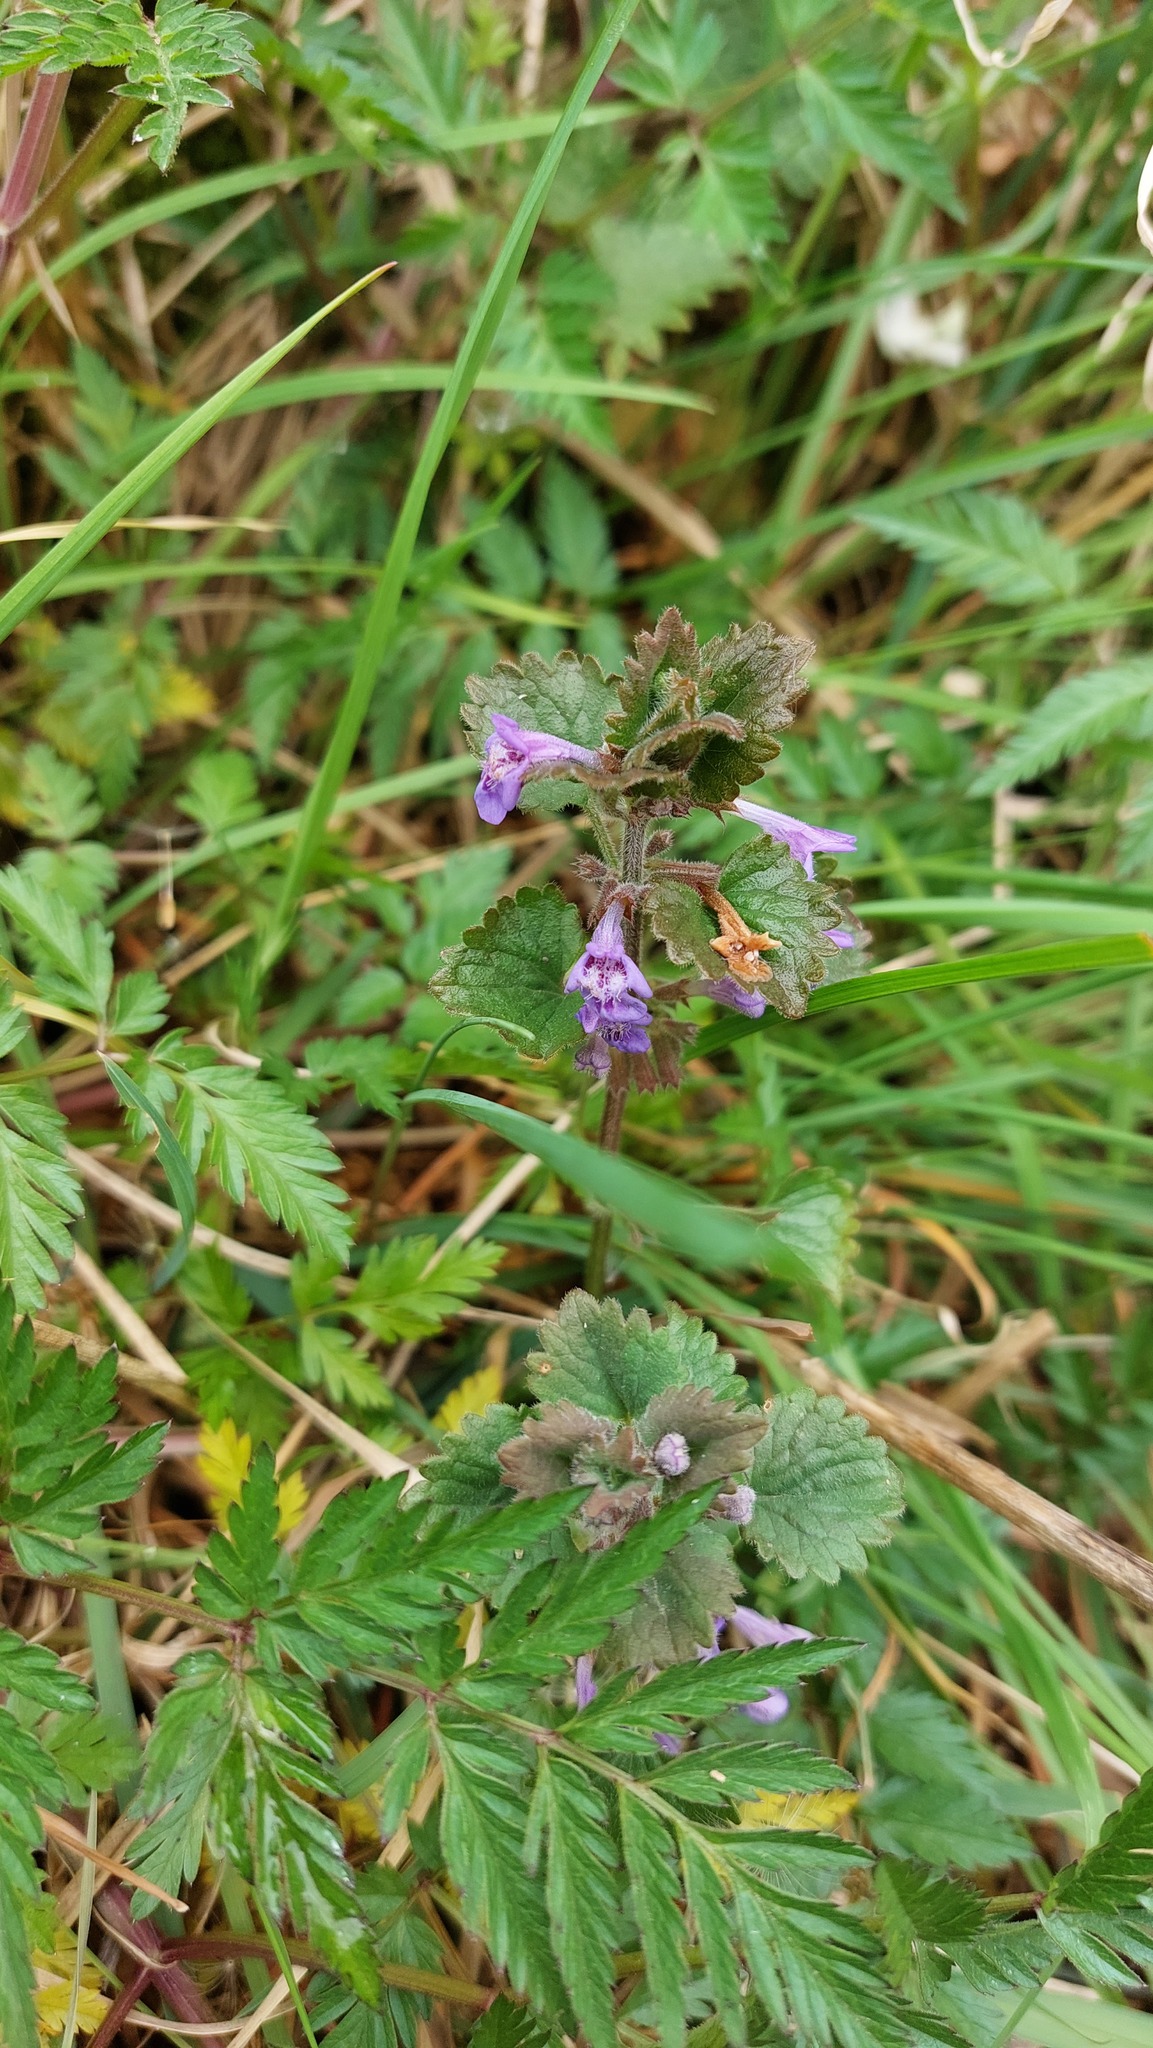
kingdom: Plantae
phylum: Tracheophyta
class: Magnoliopsida
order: Lamiales
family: Lamiaceae
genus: Glechoma
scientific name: Glechoma hederacea
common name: Ground ivy
